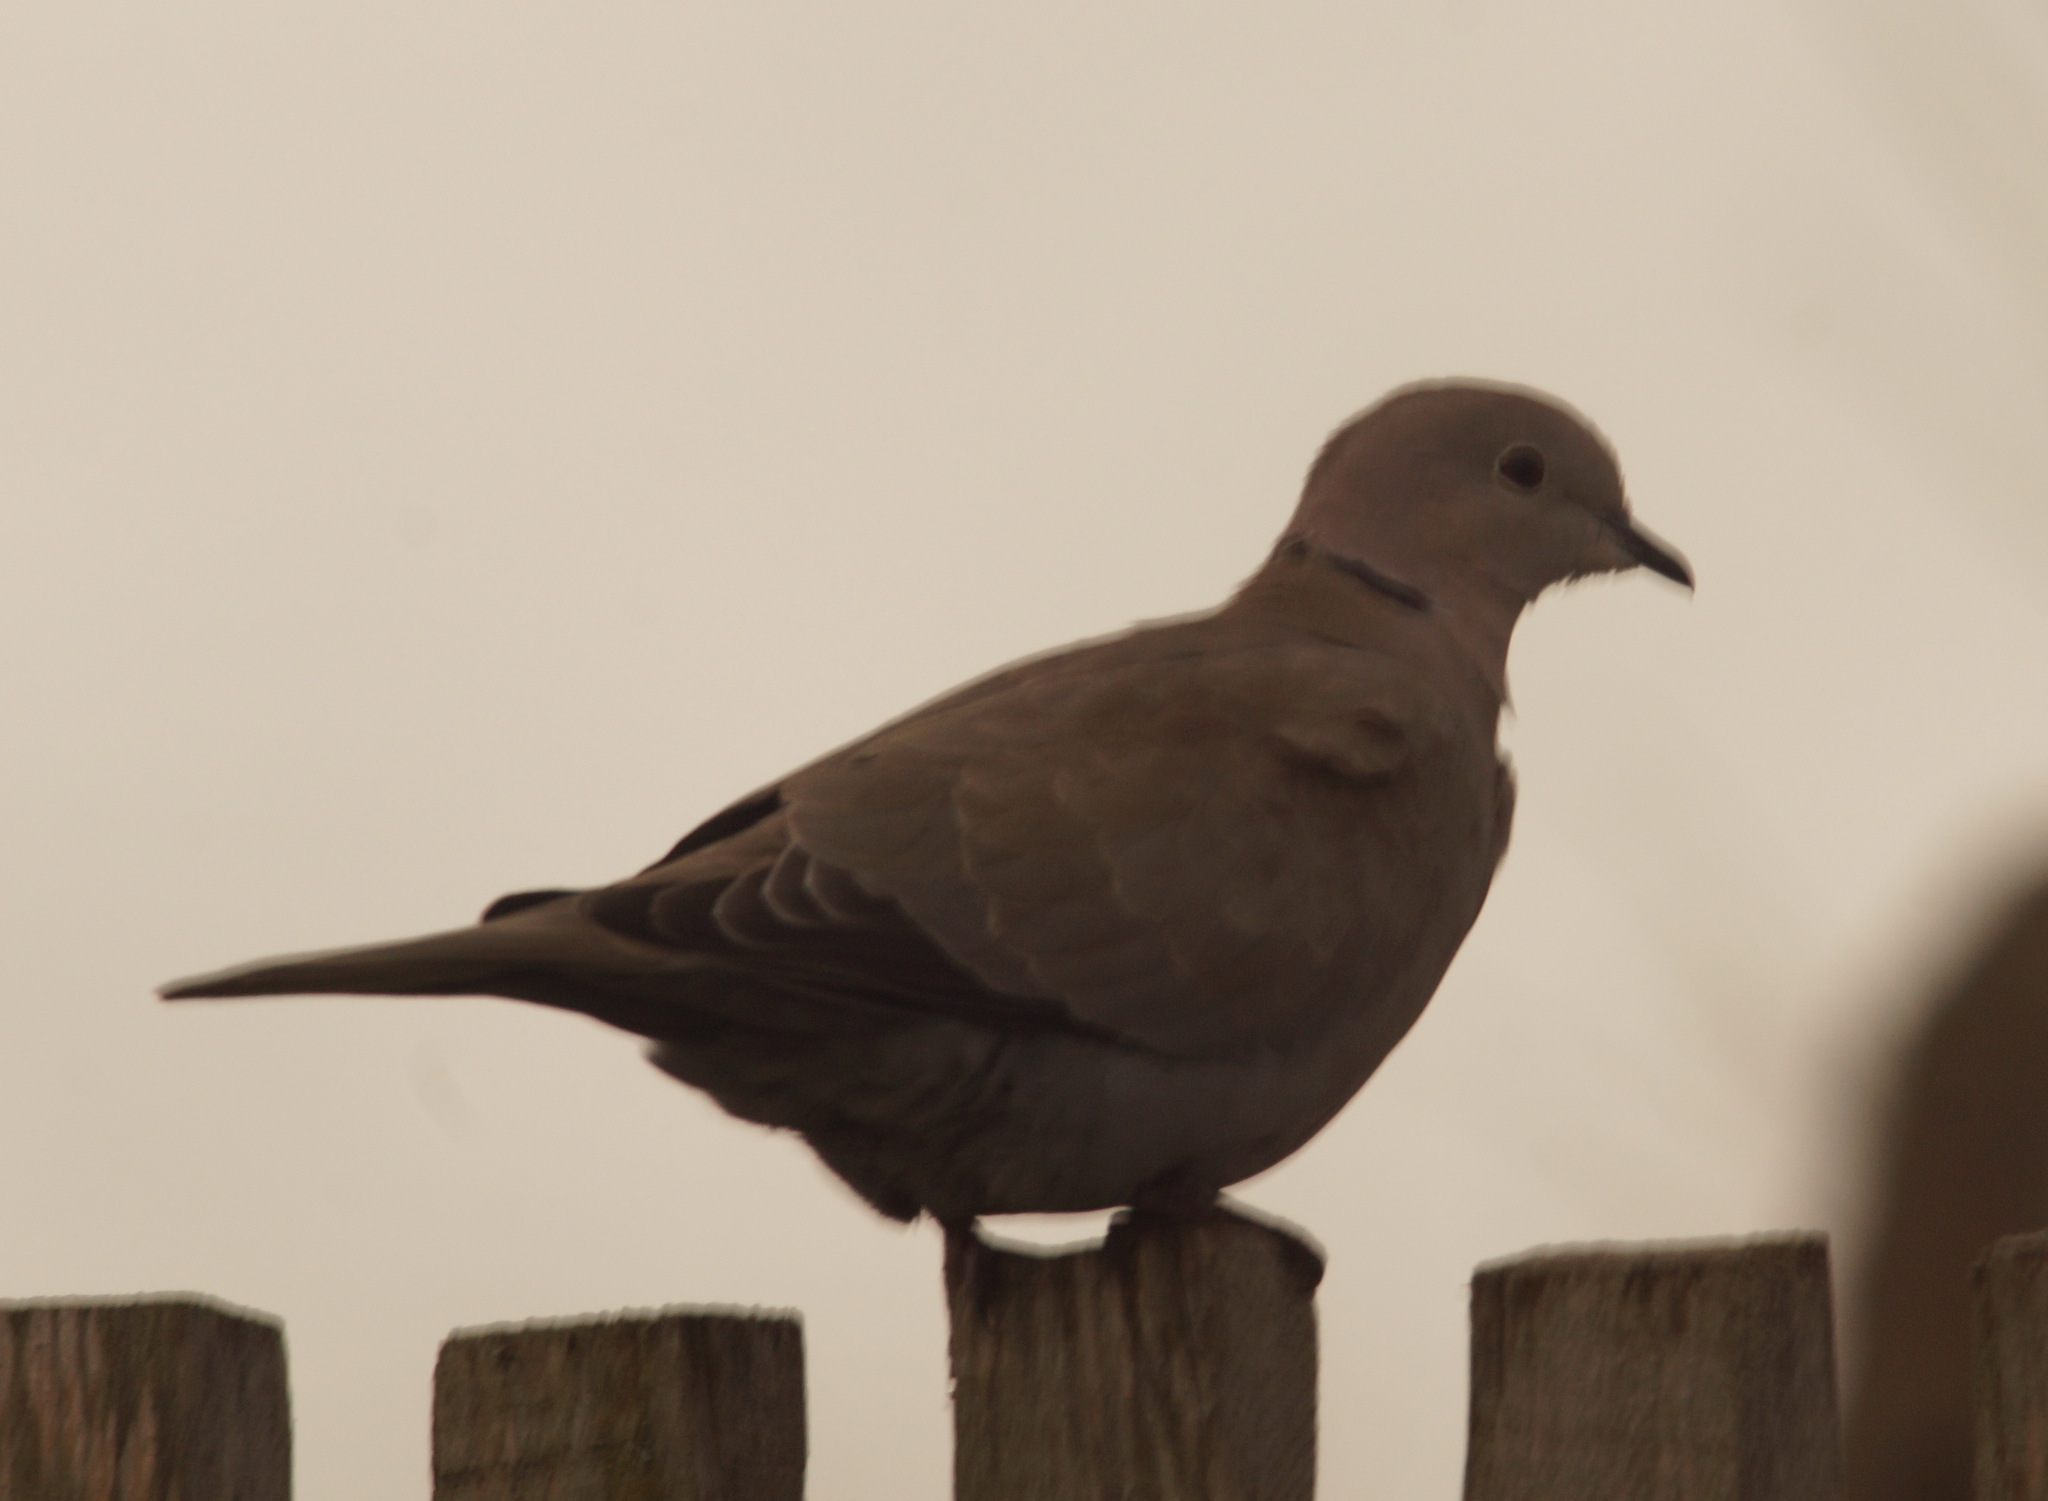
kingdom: Animalia
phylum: Chordata
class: Aves
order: Columbiformes
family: Columbidae
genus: Streptopelia
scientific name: Streptopelia decaocto
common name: Eurasian collared dove
